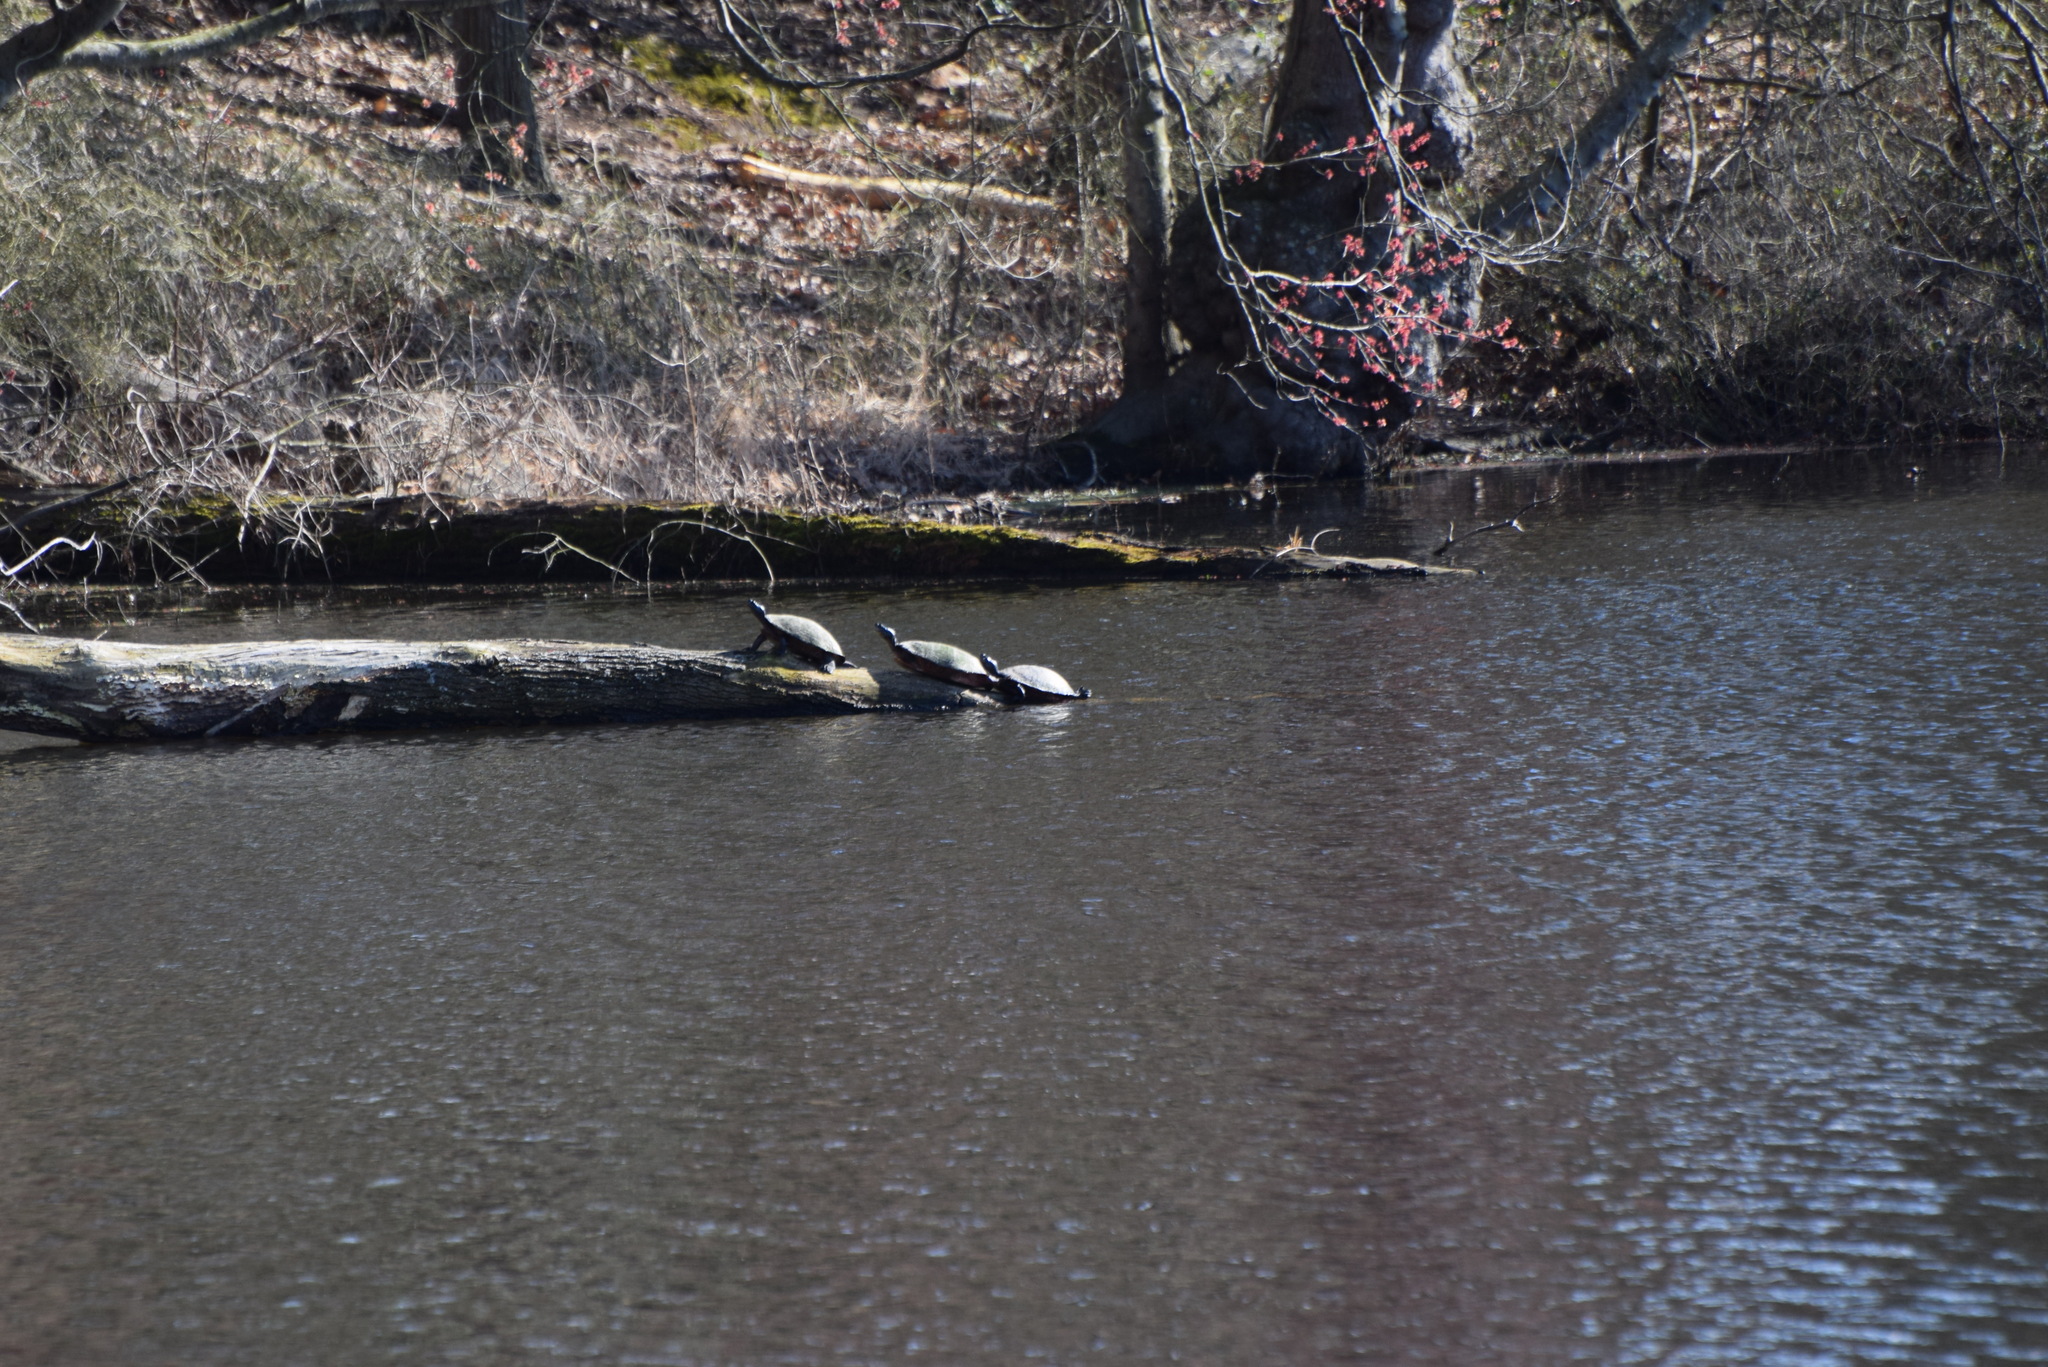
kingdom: Animalia
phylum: Chordata
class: Testudines
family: Emydidae
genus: Pseudemys
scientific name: Pseudemys rubriventris
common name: American red-bellied turtle
